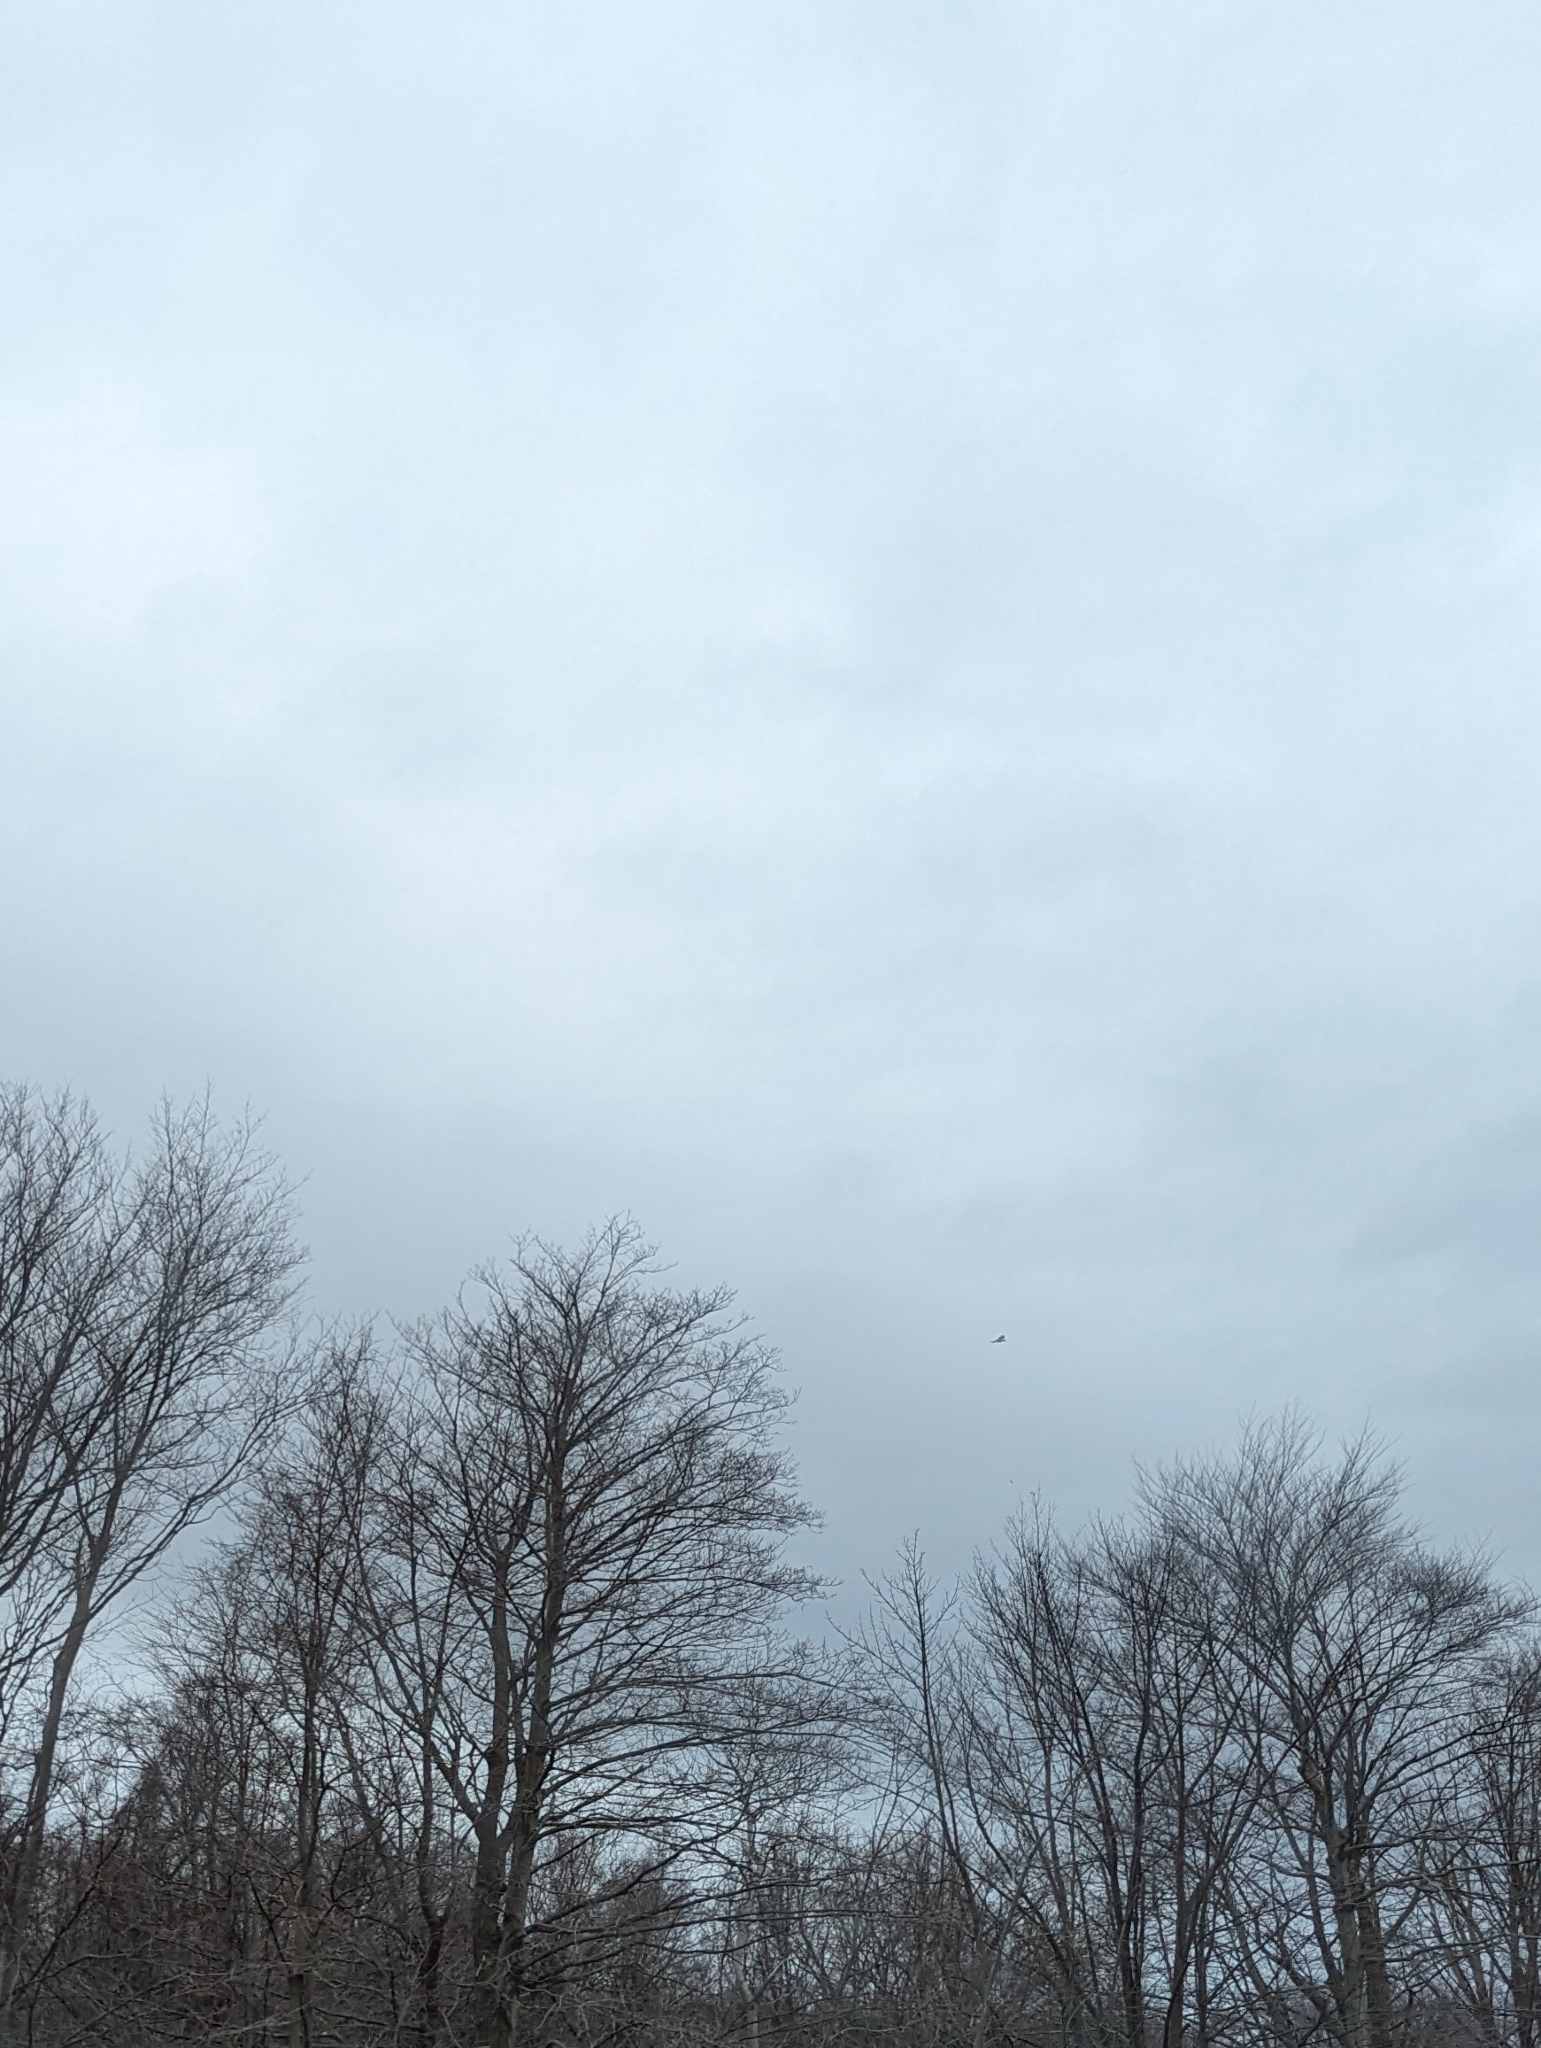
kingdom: Animalia
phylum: Chordata
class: Aves
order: Accipitriformes
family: Accipitridae
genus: Buteo
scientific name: Buteo jamaicensis
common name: Red-tailed hawk
